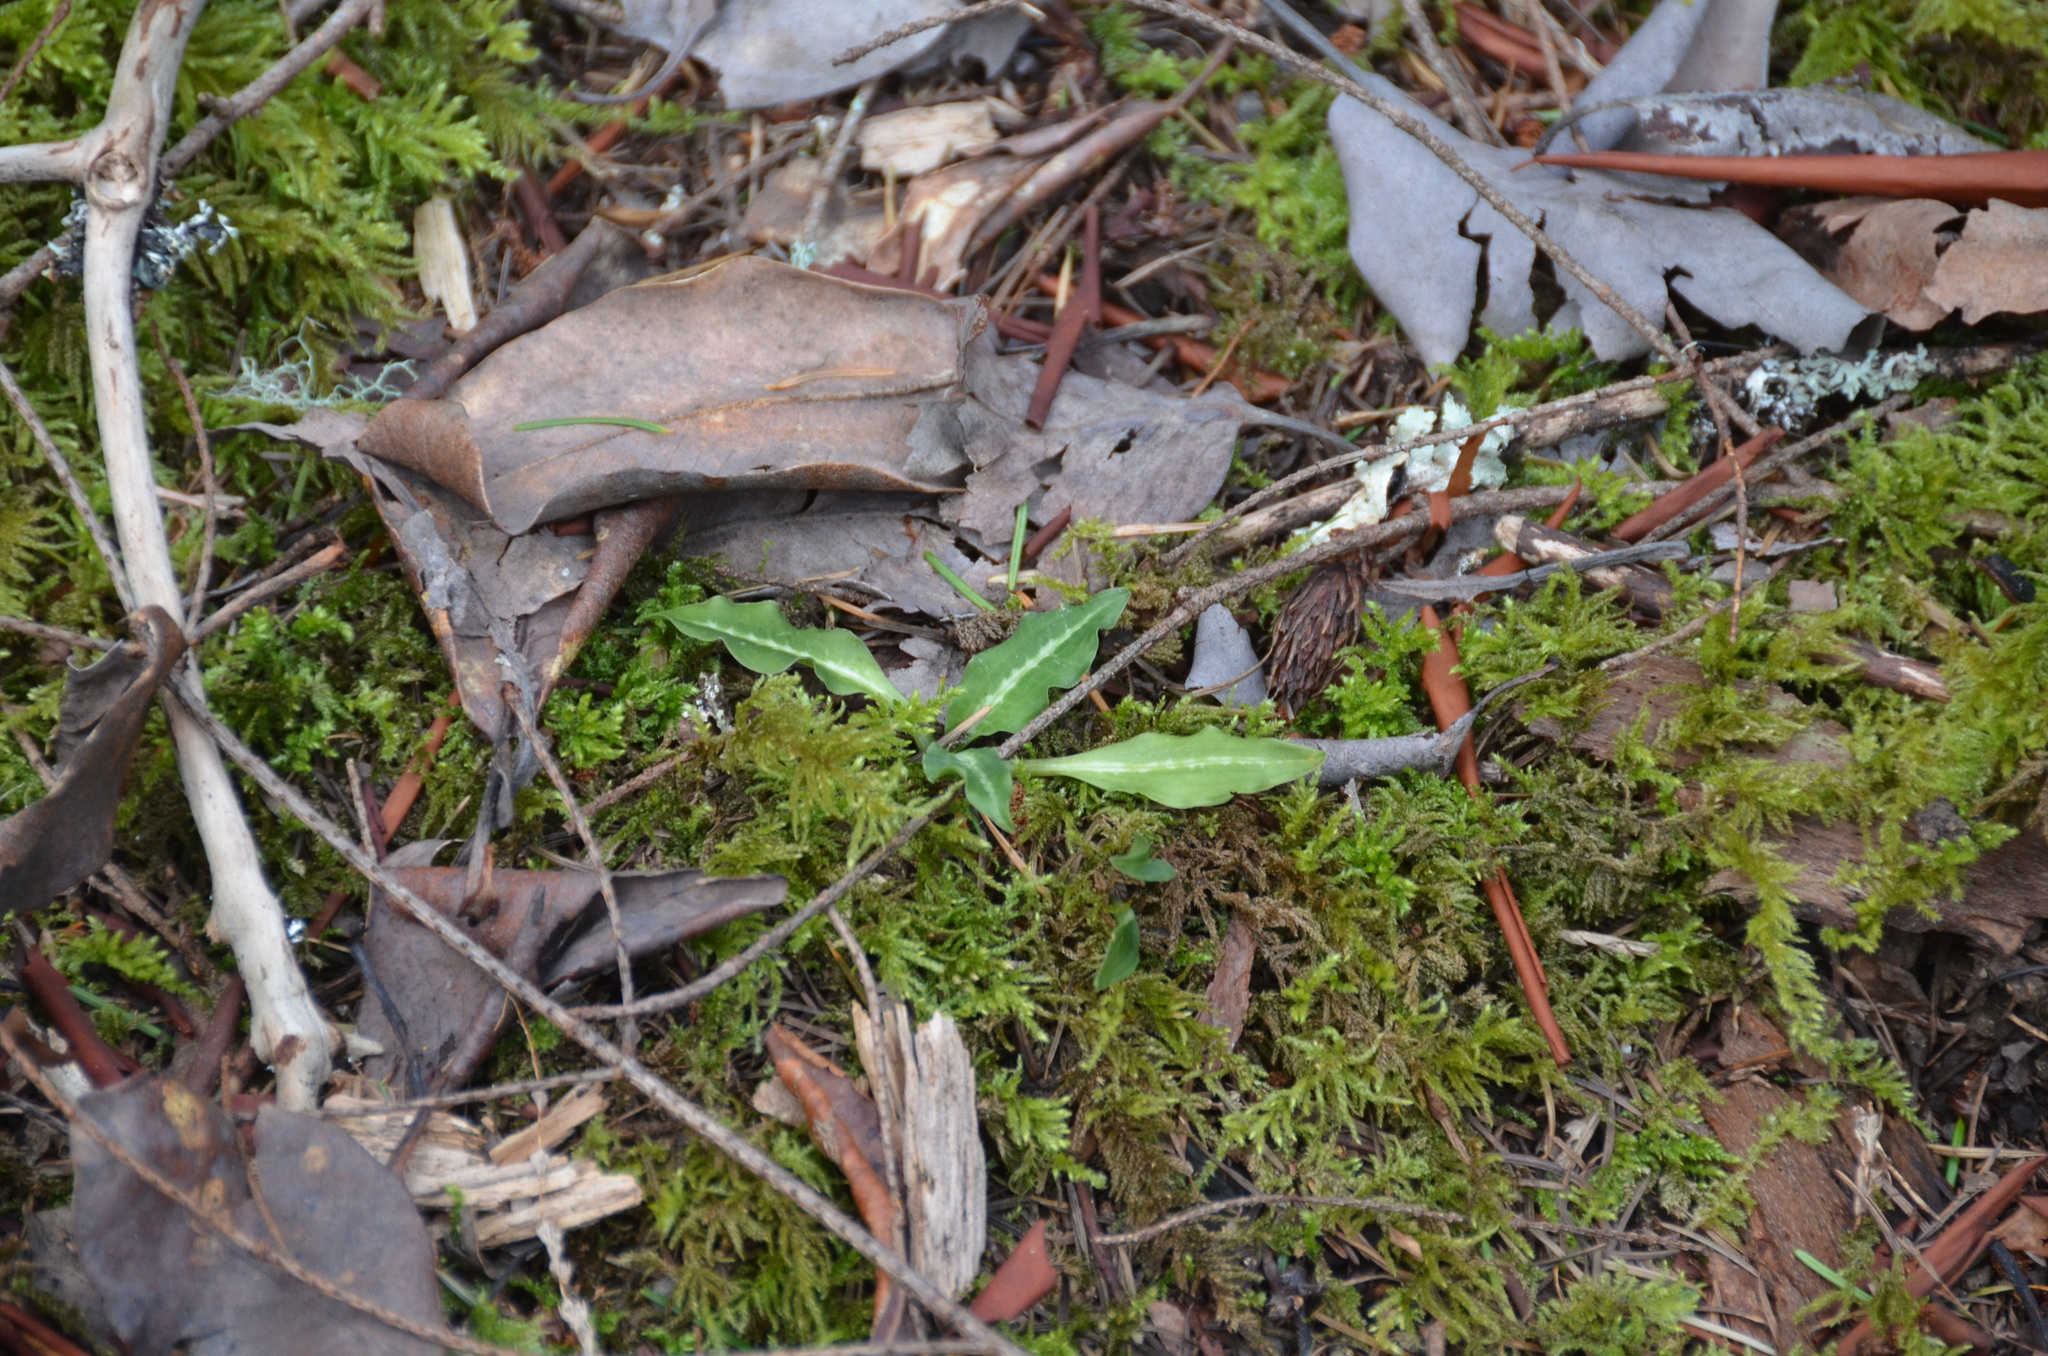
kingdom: Plantae
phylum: Tracheophyta
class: Liliopsida
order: Asparagales
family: Orchidaceae
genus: Goodyera
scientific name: Goodyera oblongifolia
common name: Giant rattlesnake-plantain
